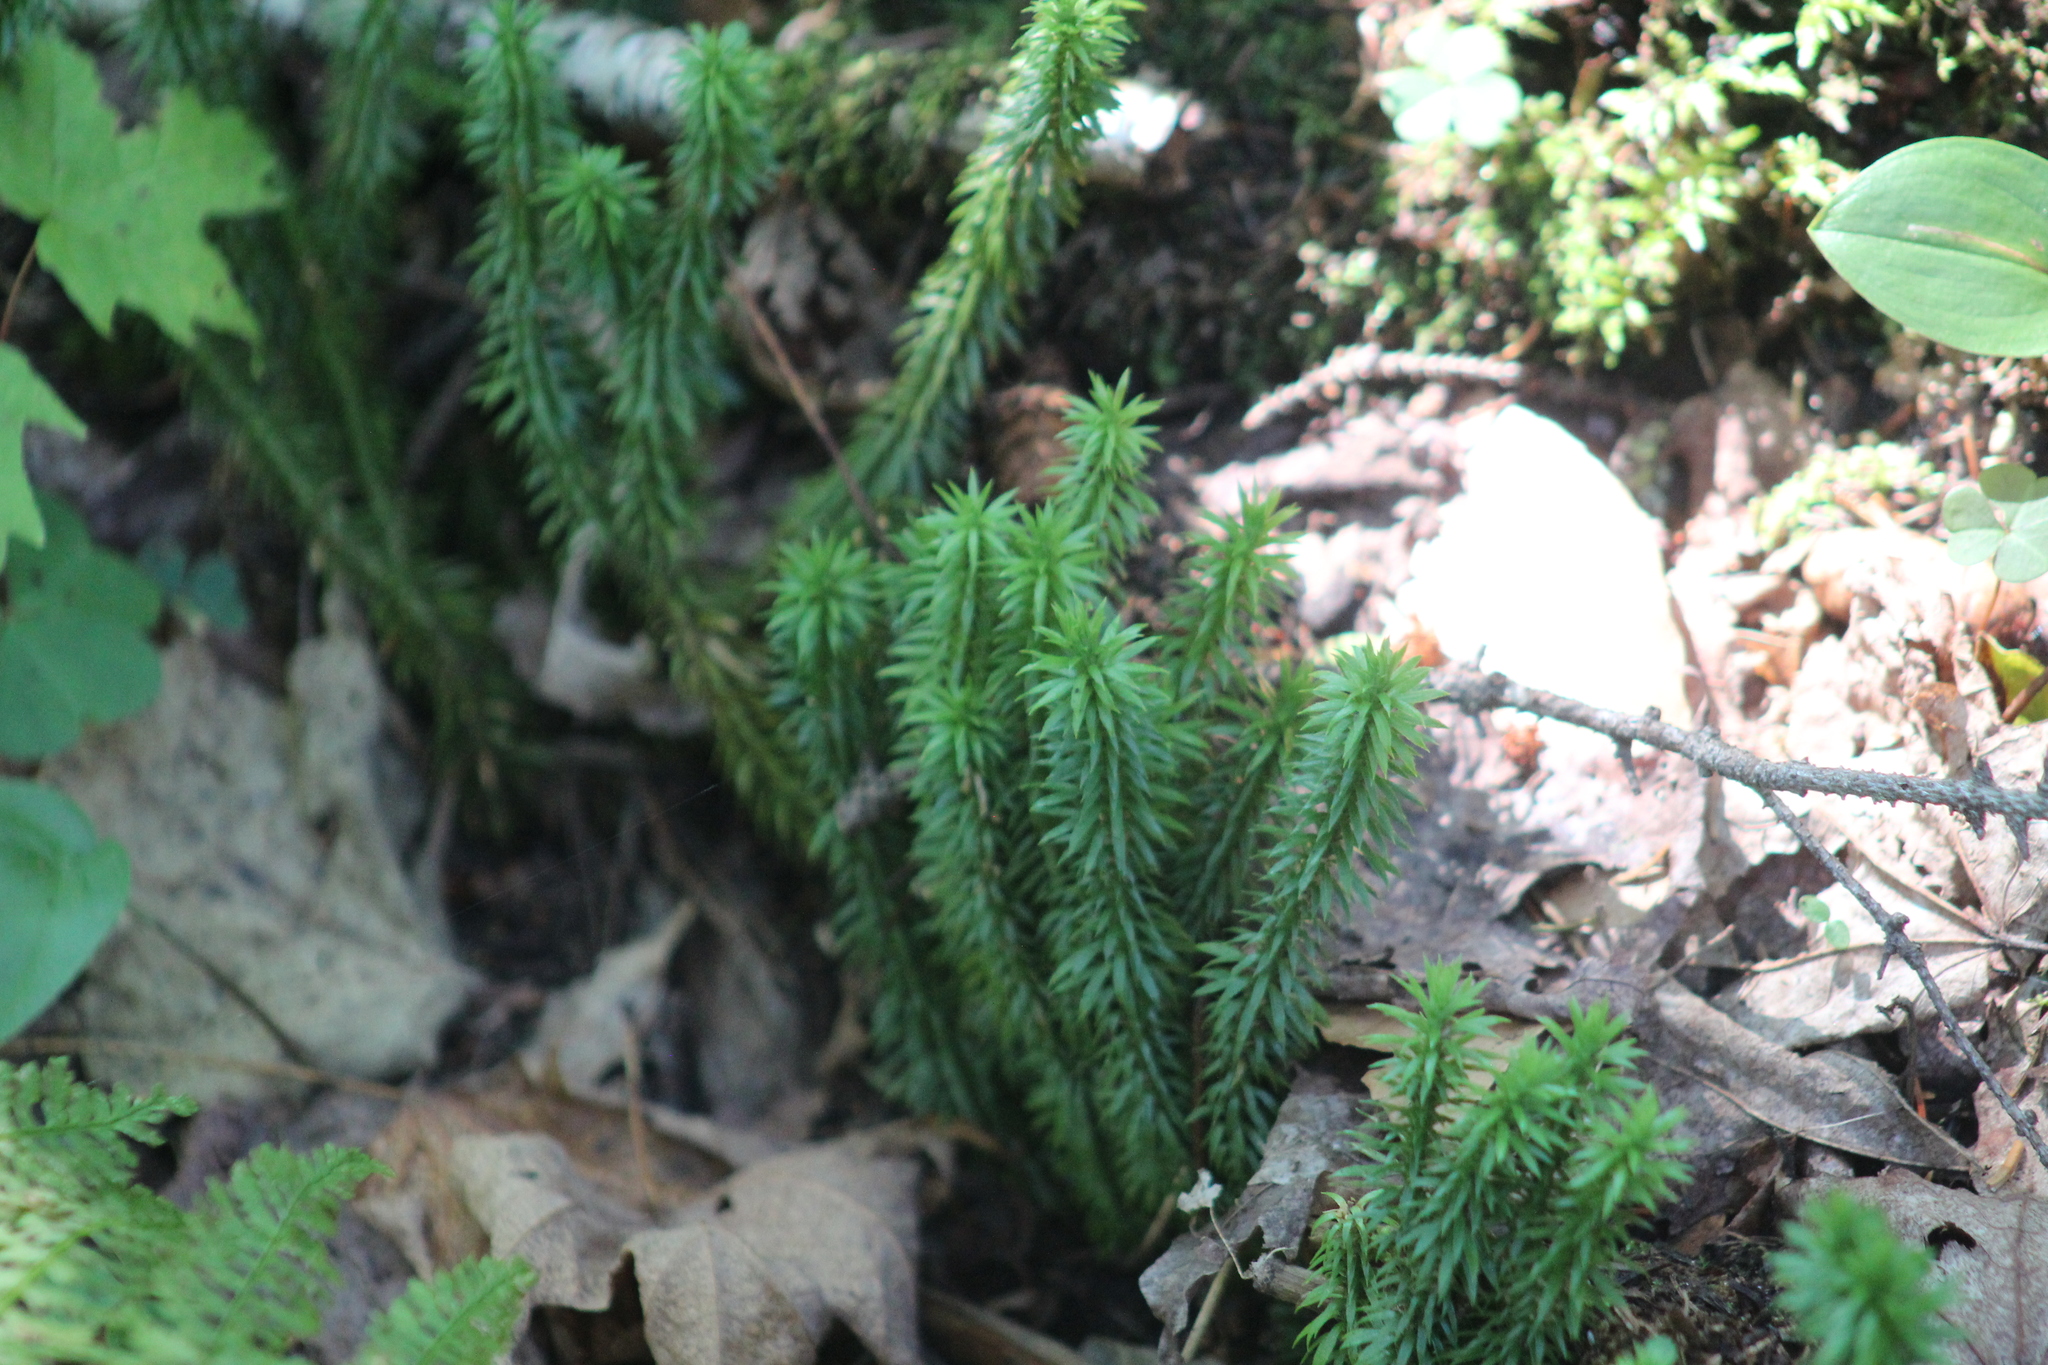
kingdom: Plantae
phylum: Tracheophyta
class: Lycopodiopsida
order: Lycopodiales
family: Lycopodiaceae
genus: Huperzia
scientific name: Huperzia lucidula
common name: Shining clubmoss
